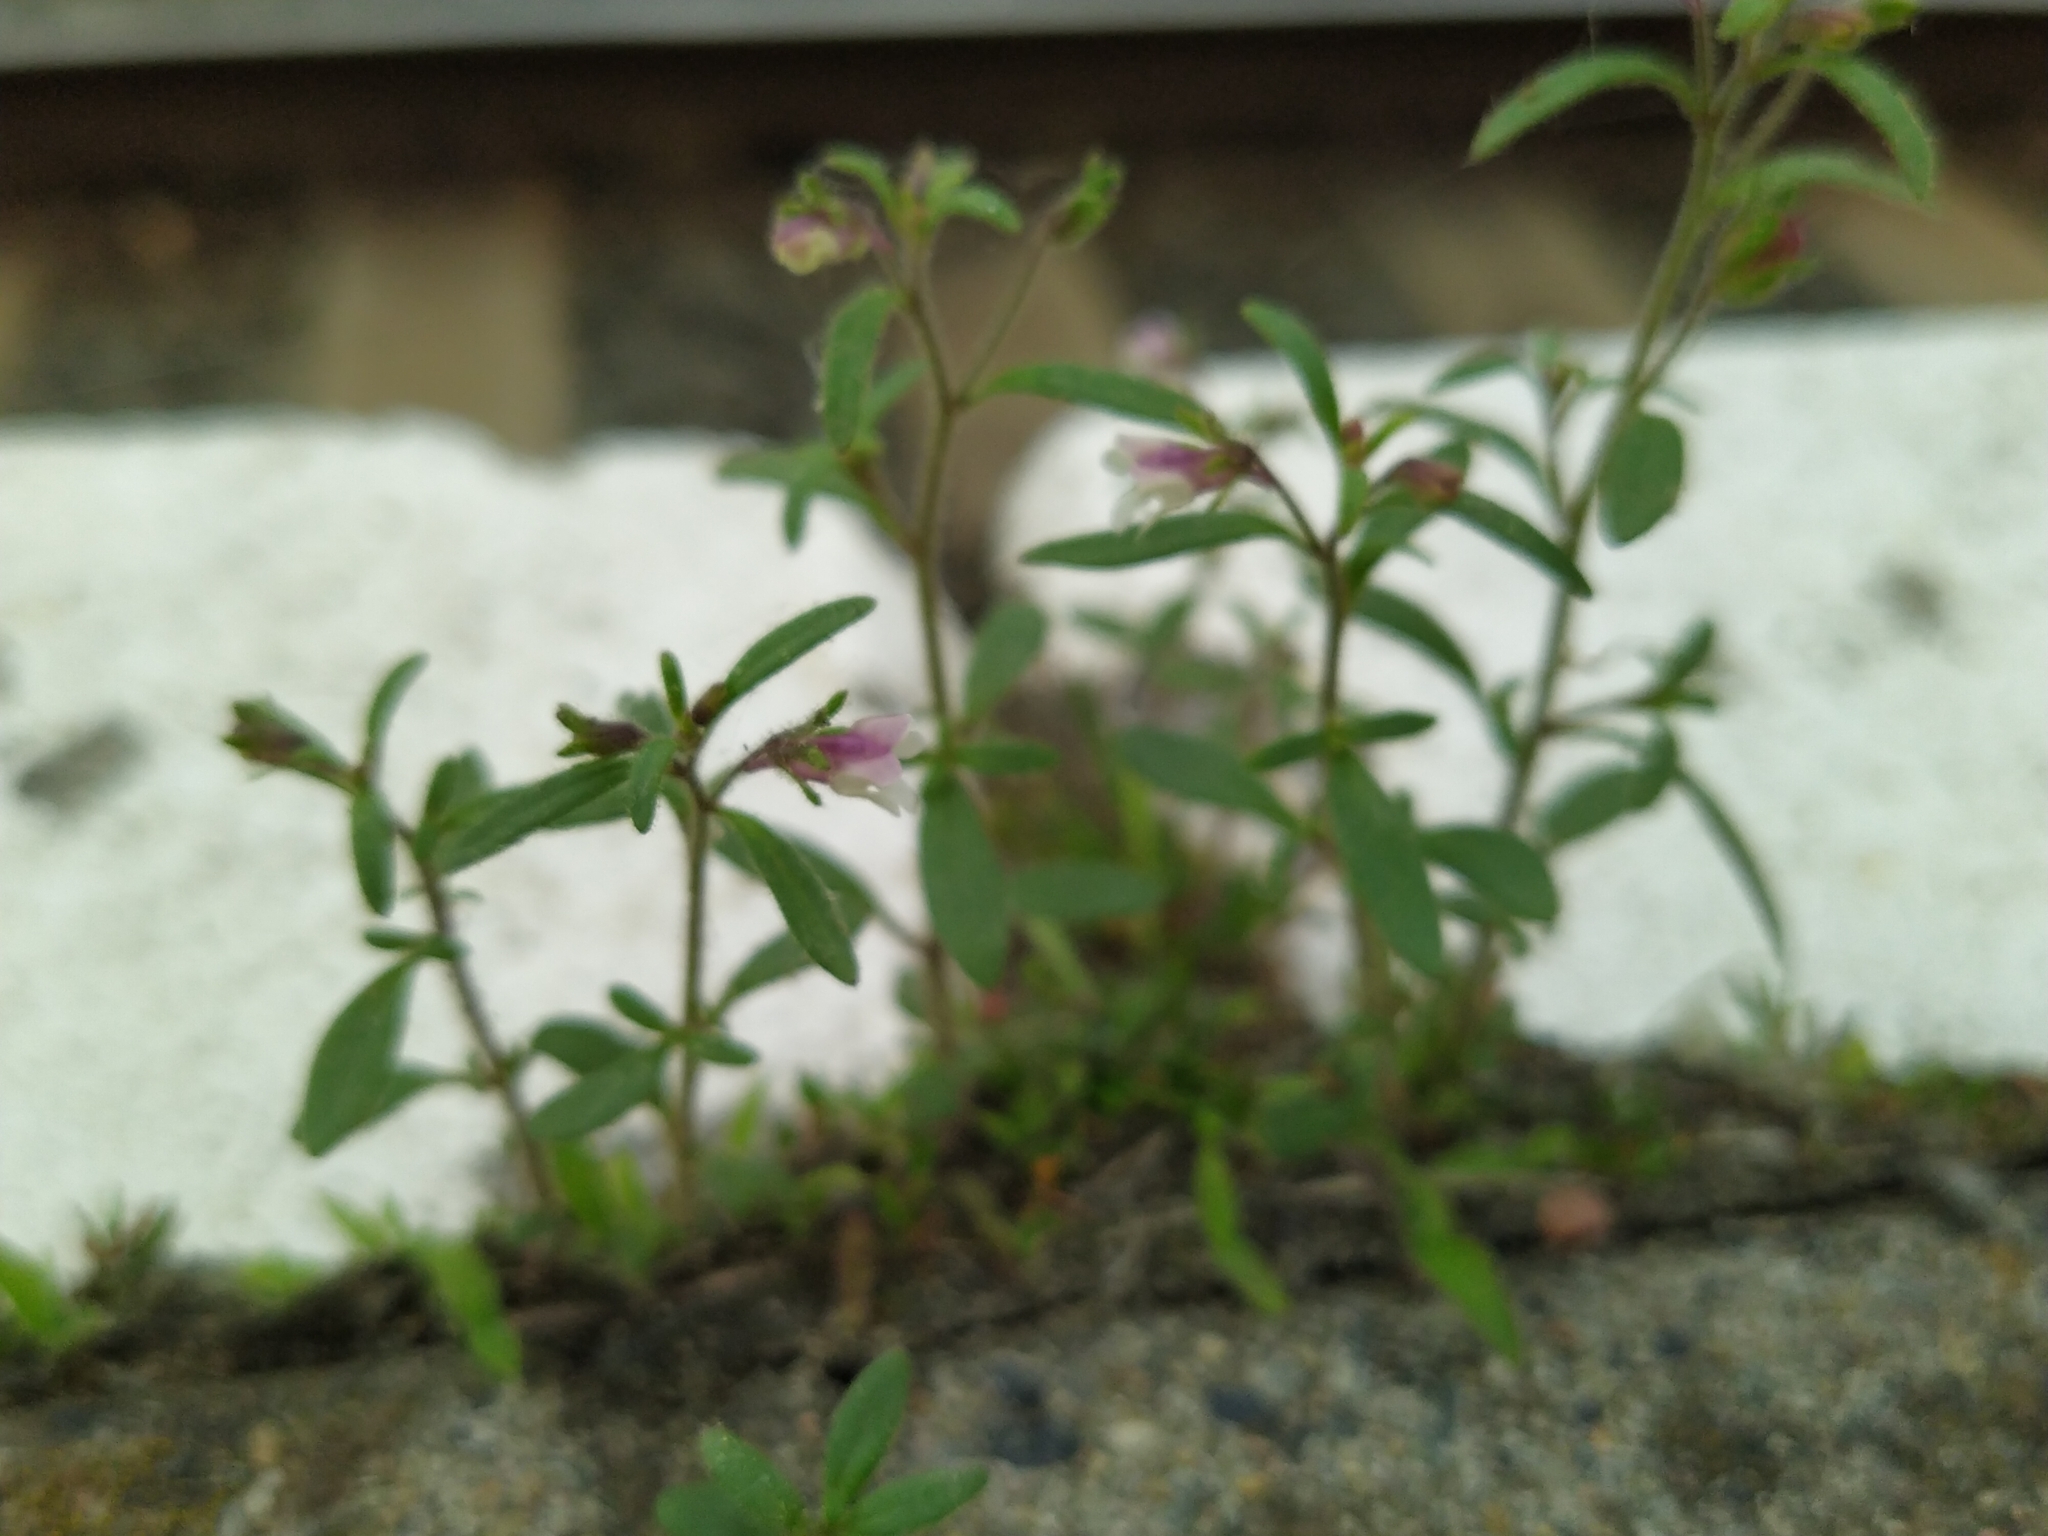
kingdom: Plantae
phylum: Tracheophyta
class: Magnoliopsida
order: Lamiales
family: Plantaginaceae
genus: Chaenorhinum
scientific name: Chaenorhinum minus
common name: Dwarf snapdragon
